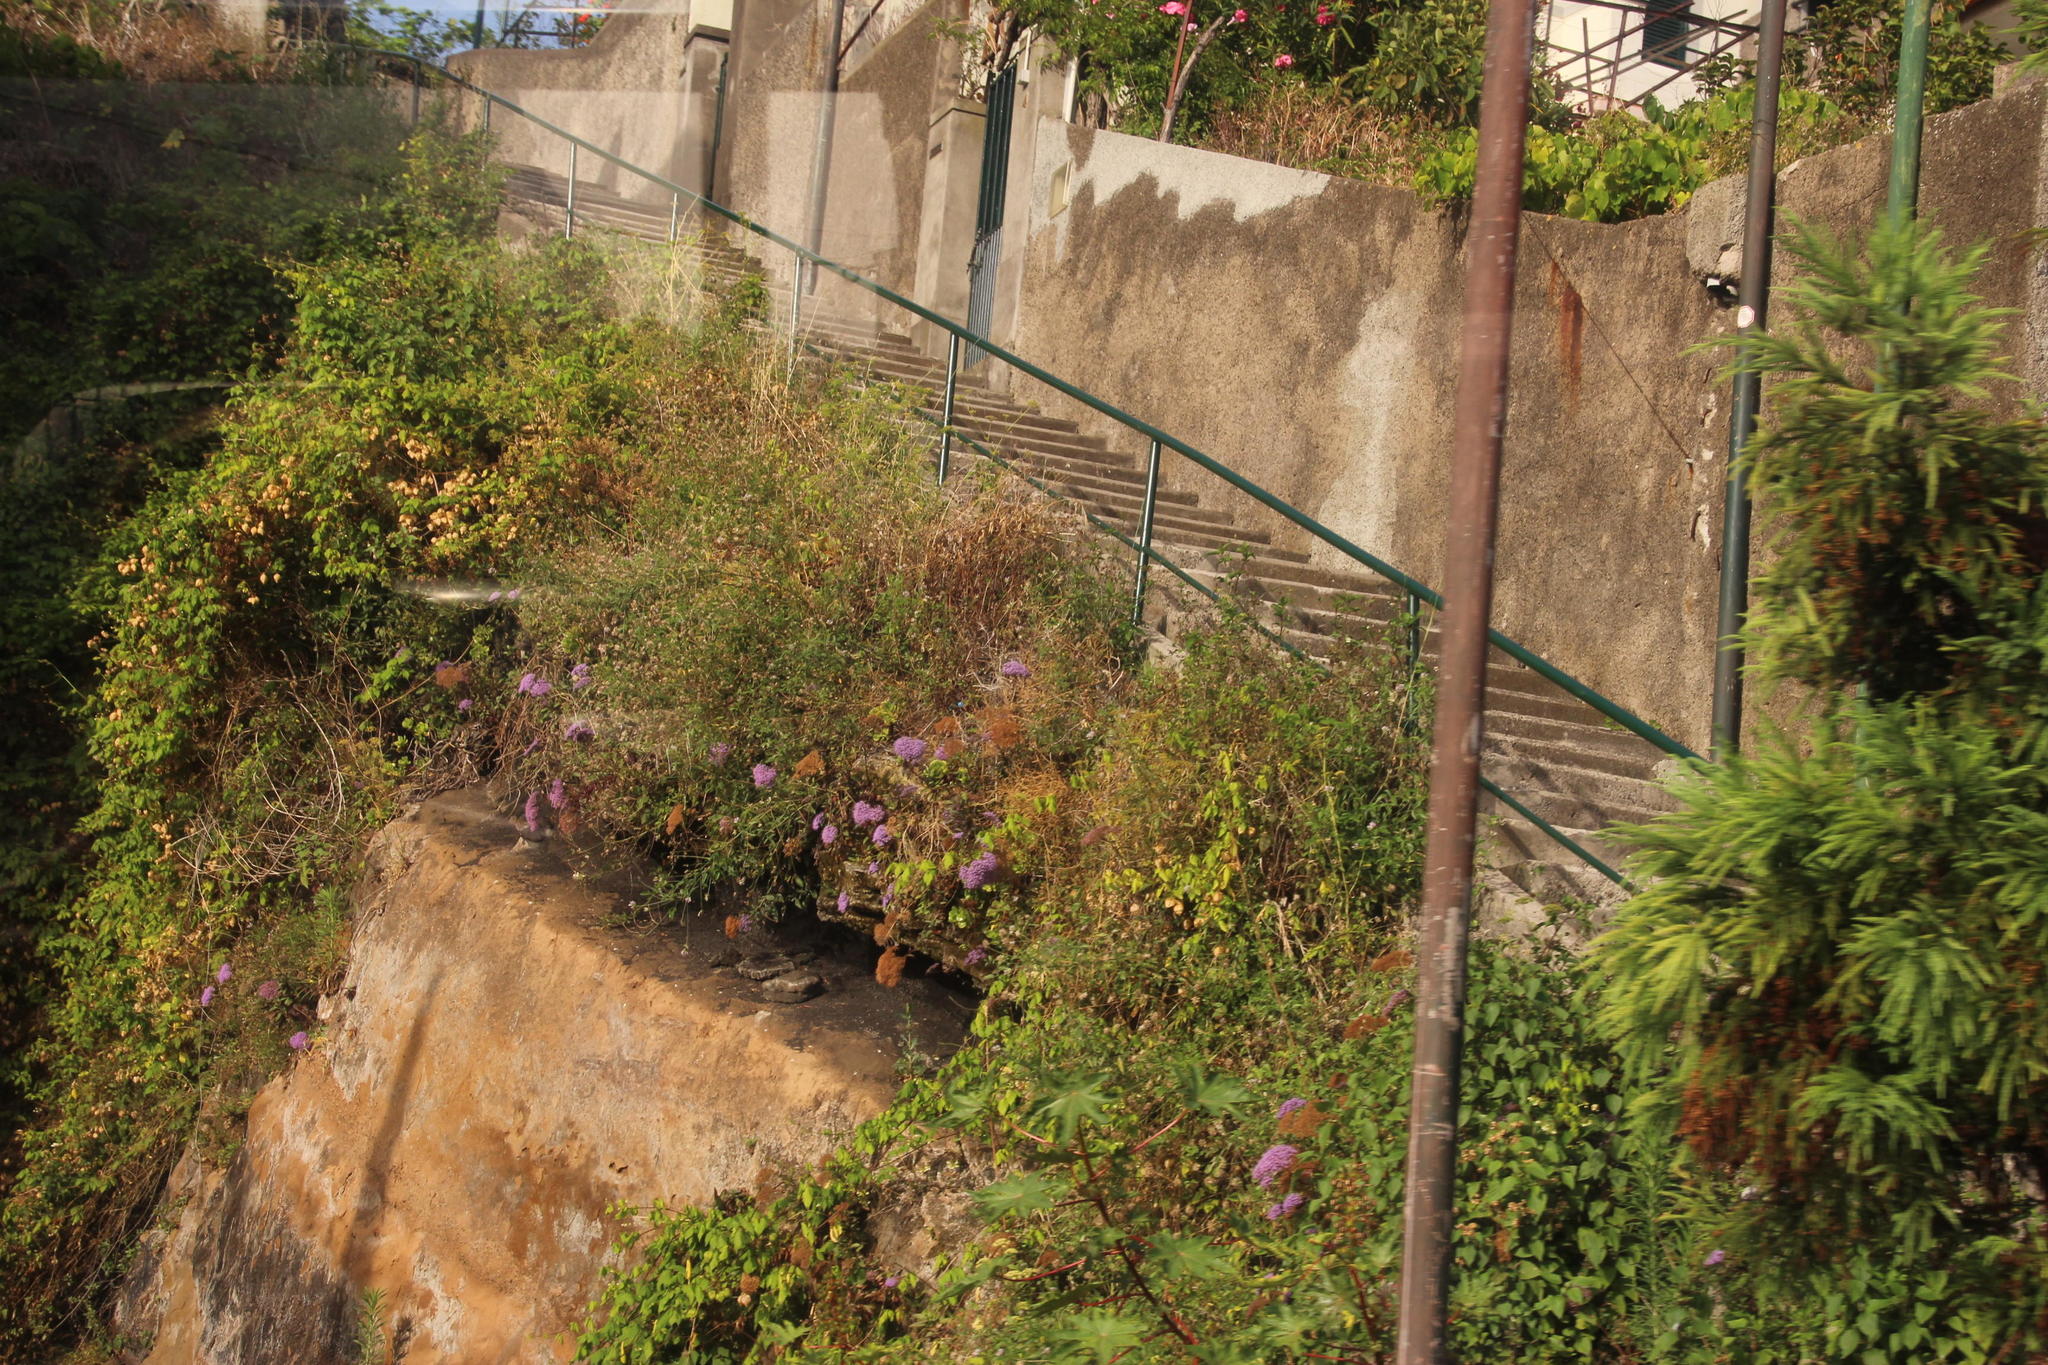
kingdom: Plantae
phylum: Tracheophyta
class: Magnoliopsida
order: Asterales
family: Campanulaceae
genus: Trachelium
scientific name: Trachelium caeruleum
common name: Throatwort
